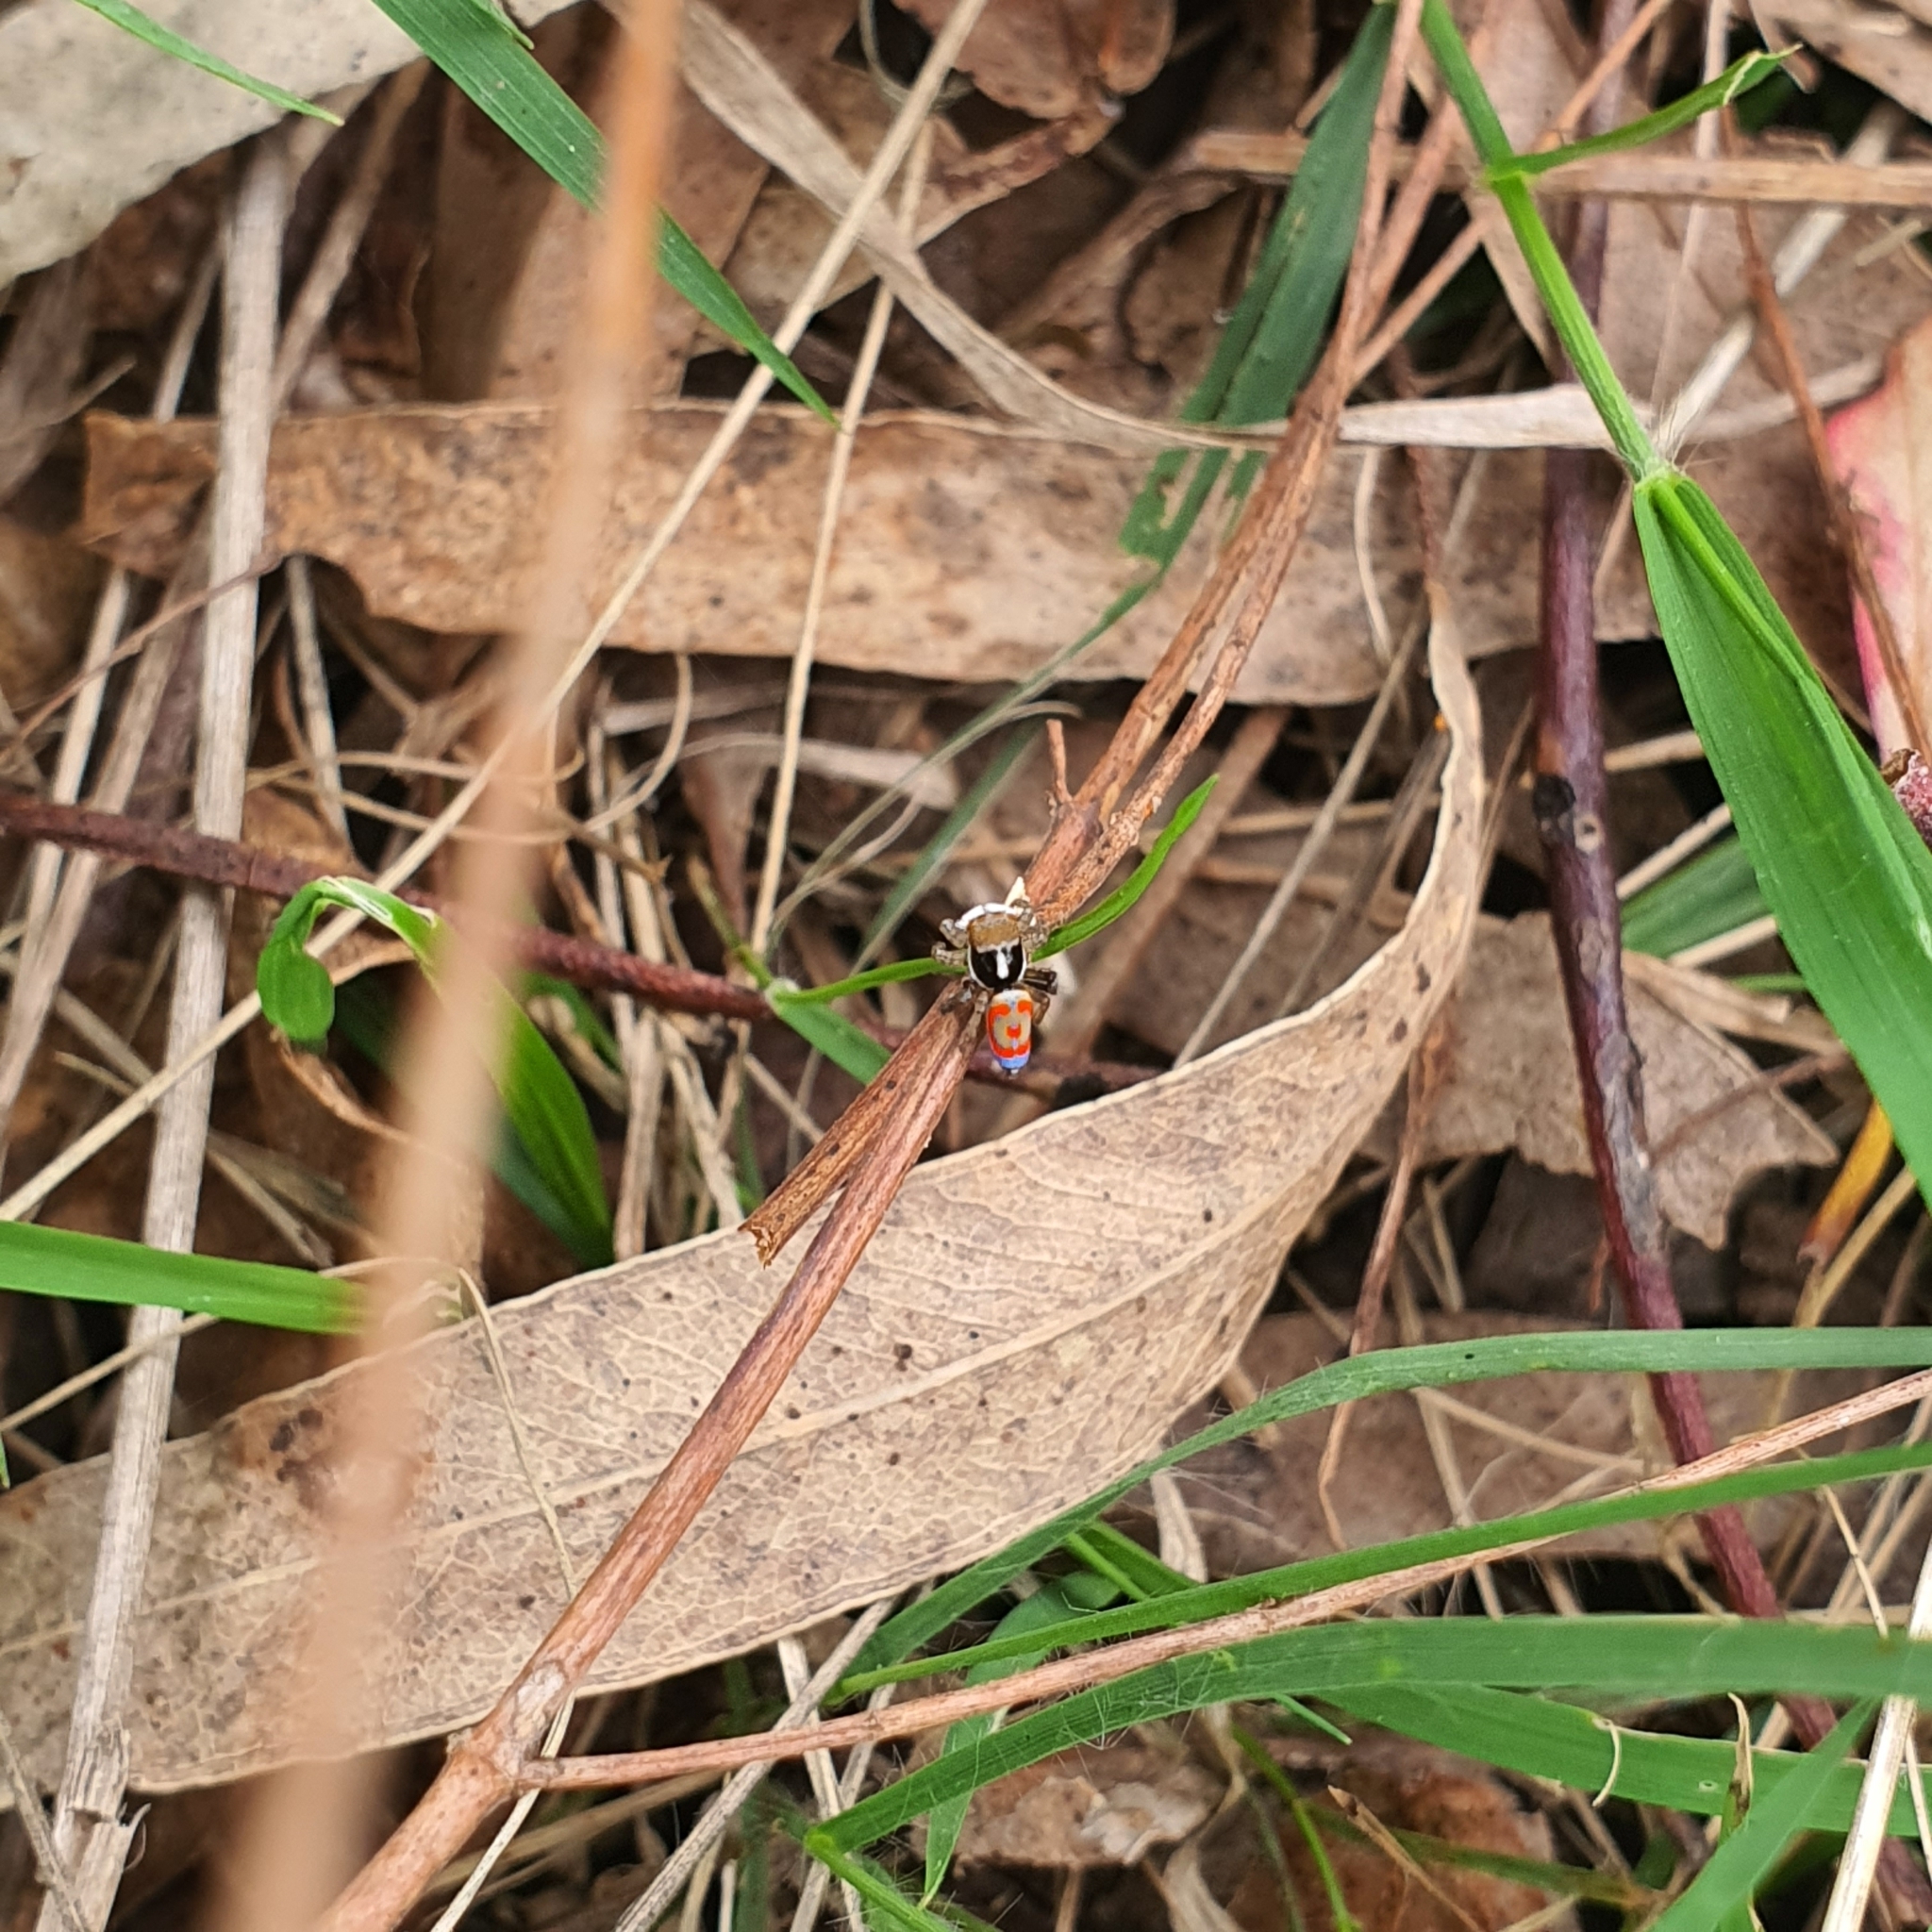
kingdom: Animalia
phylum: Arthropoda
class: Arachnida
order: Araneae
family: Salticidae
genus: Maratus
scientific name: Maratus pavonis
